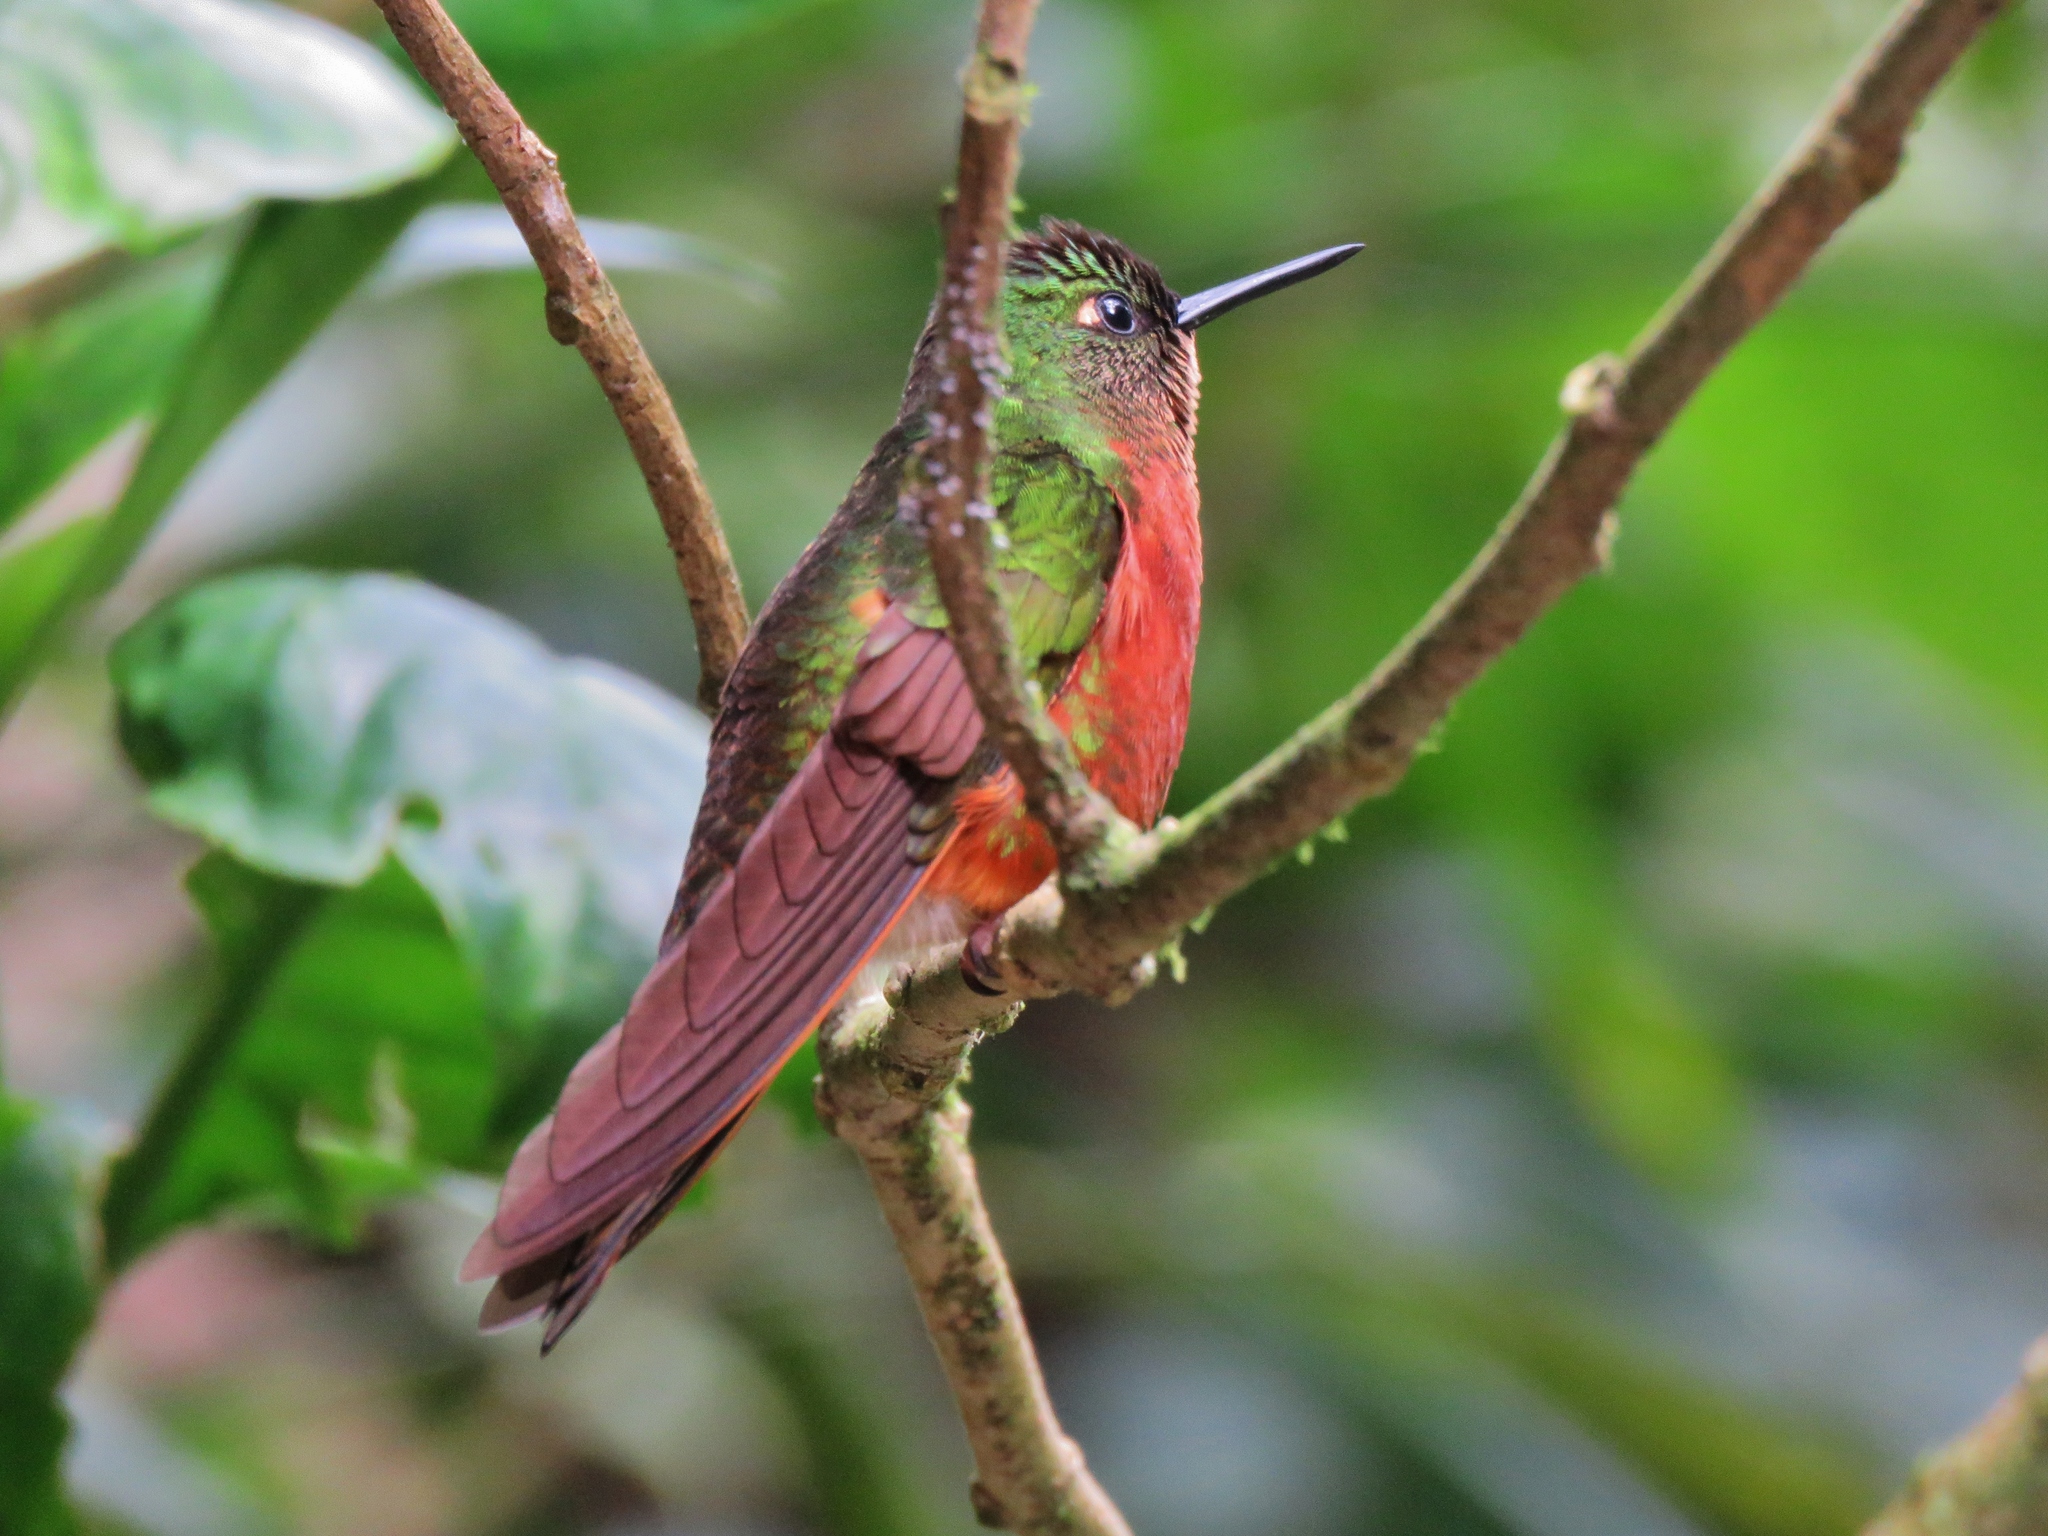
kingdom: Animalia
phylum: Chordata
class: Aves
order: Apodiformes
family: Trochilidae
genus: Boissonneaua
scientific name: Boissonneaua matthewsii
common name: Chestnut-breasted coronet
